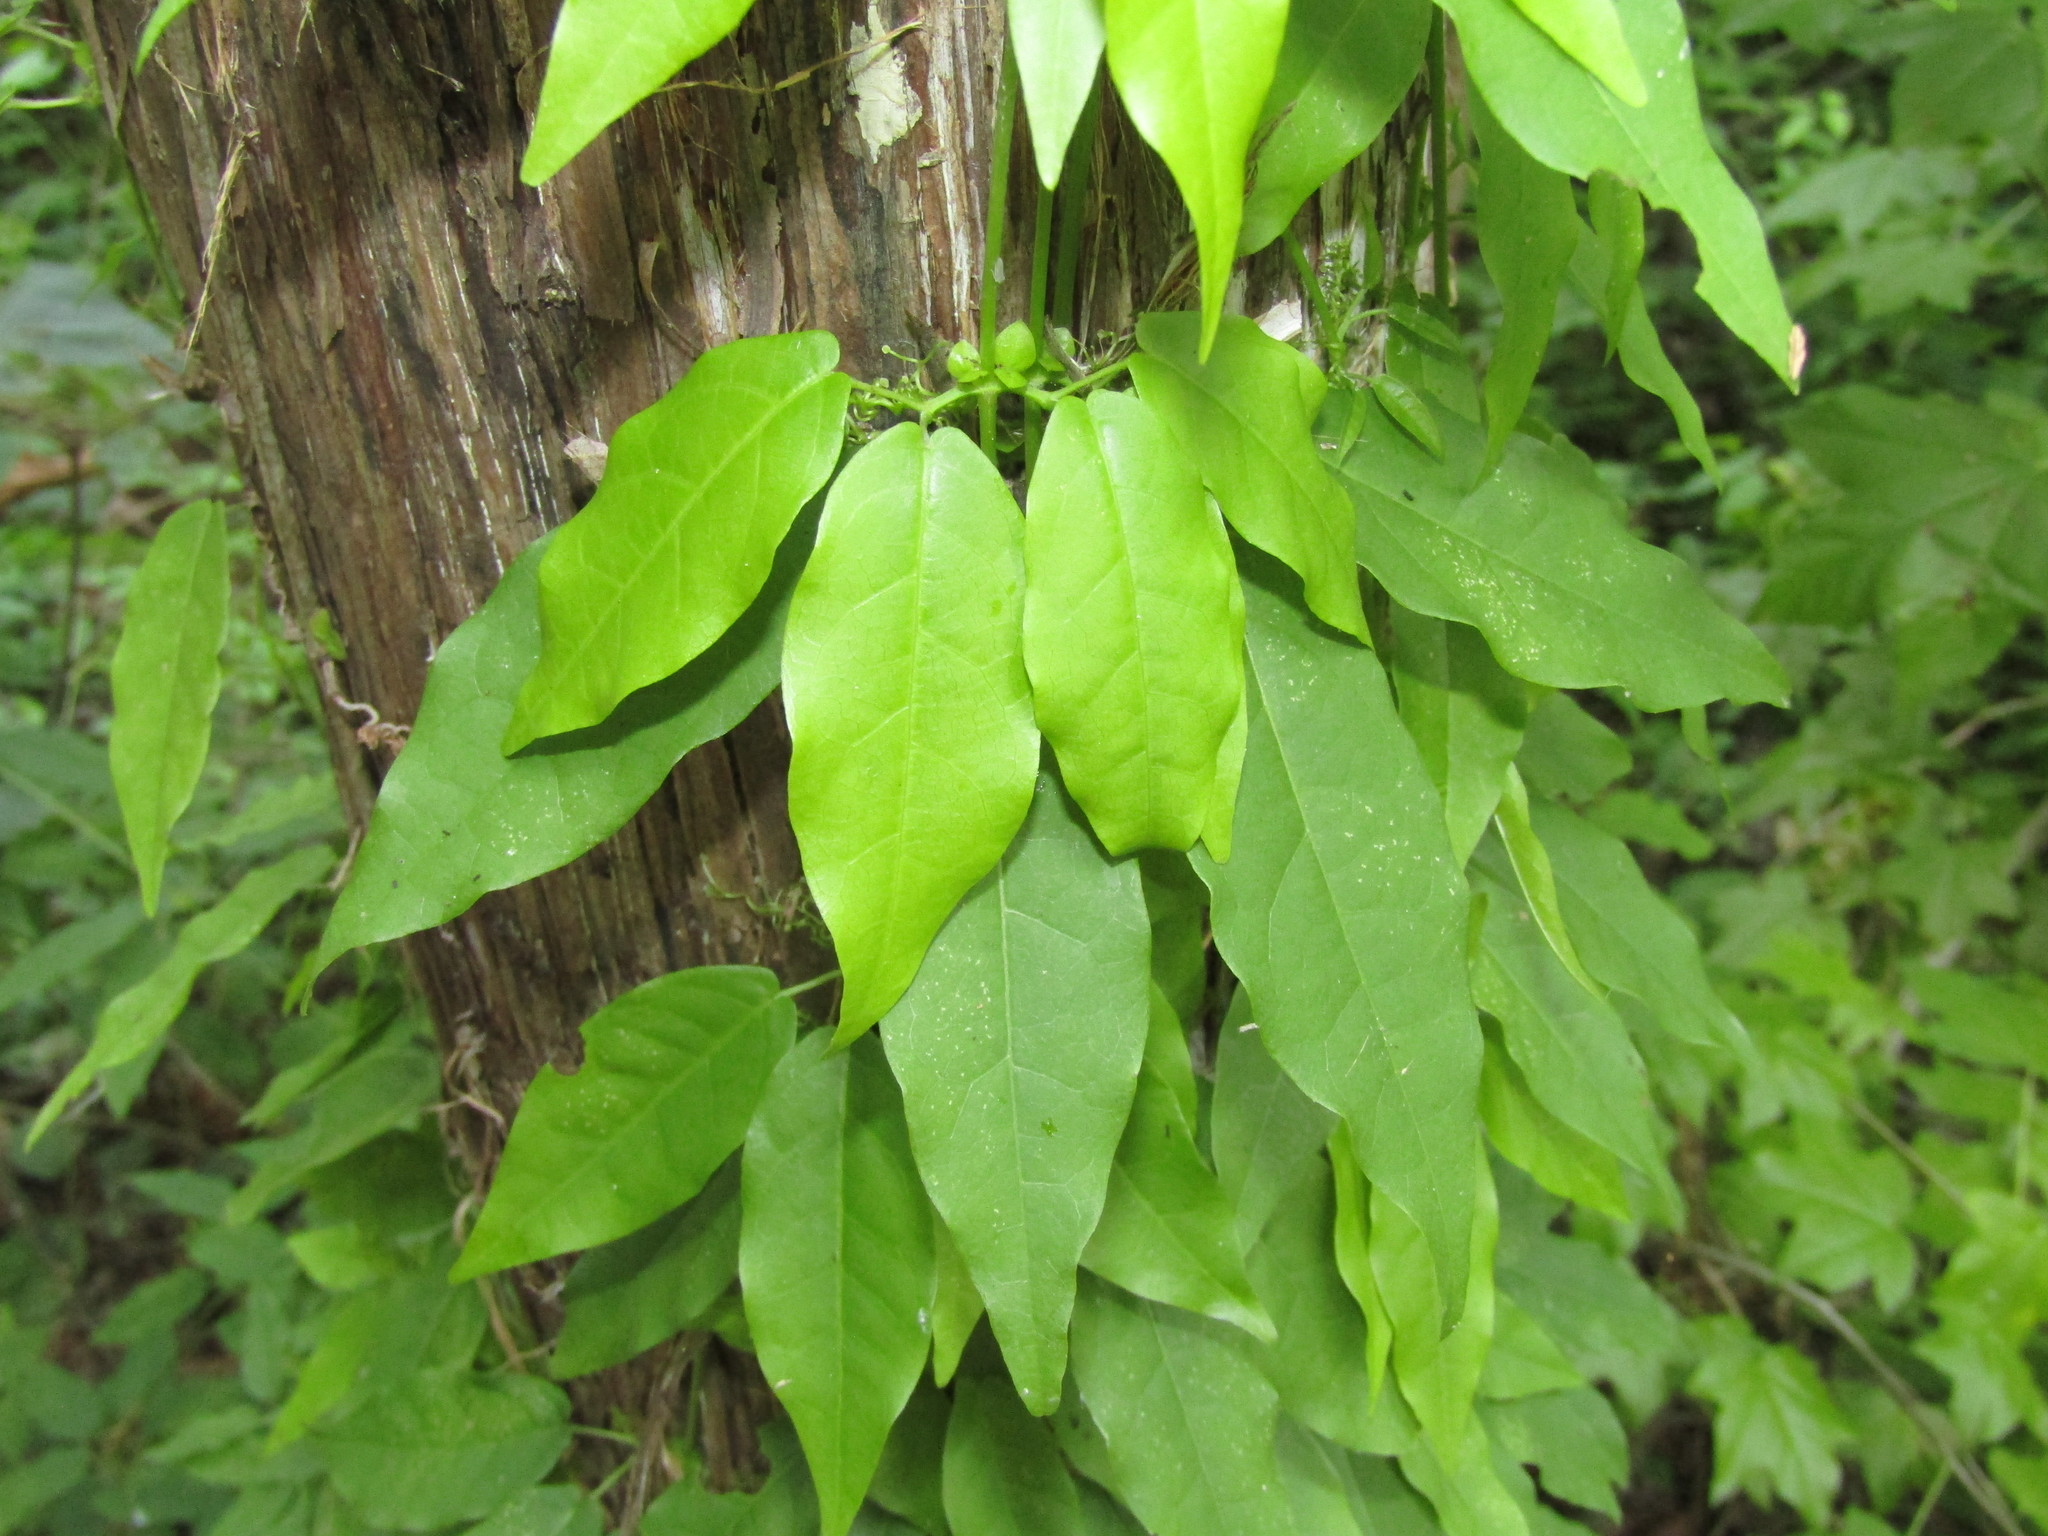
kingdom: Plantae
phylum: Tracheophyta
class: Magnoliopsida
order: Lamiales
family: Bignoniaceae
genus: Bignonia
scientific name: Bignonia capreolata
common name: Crossvine
